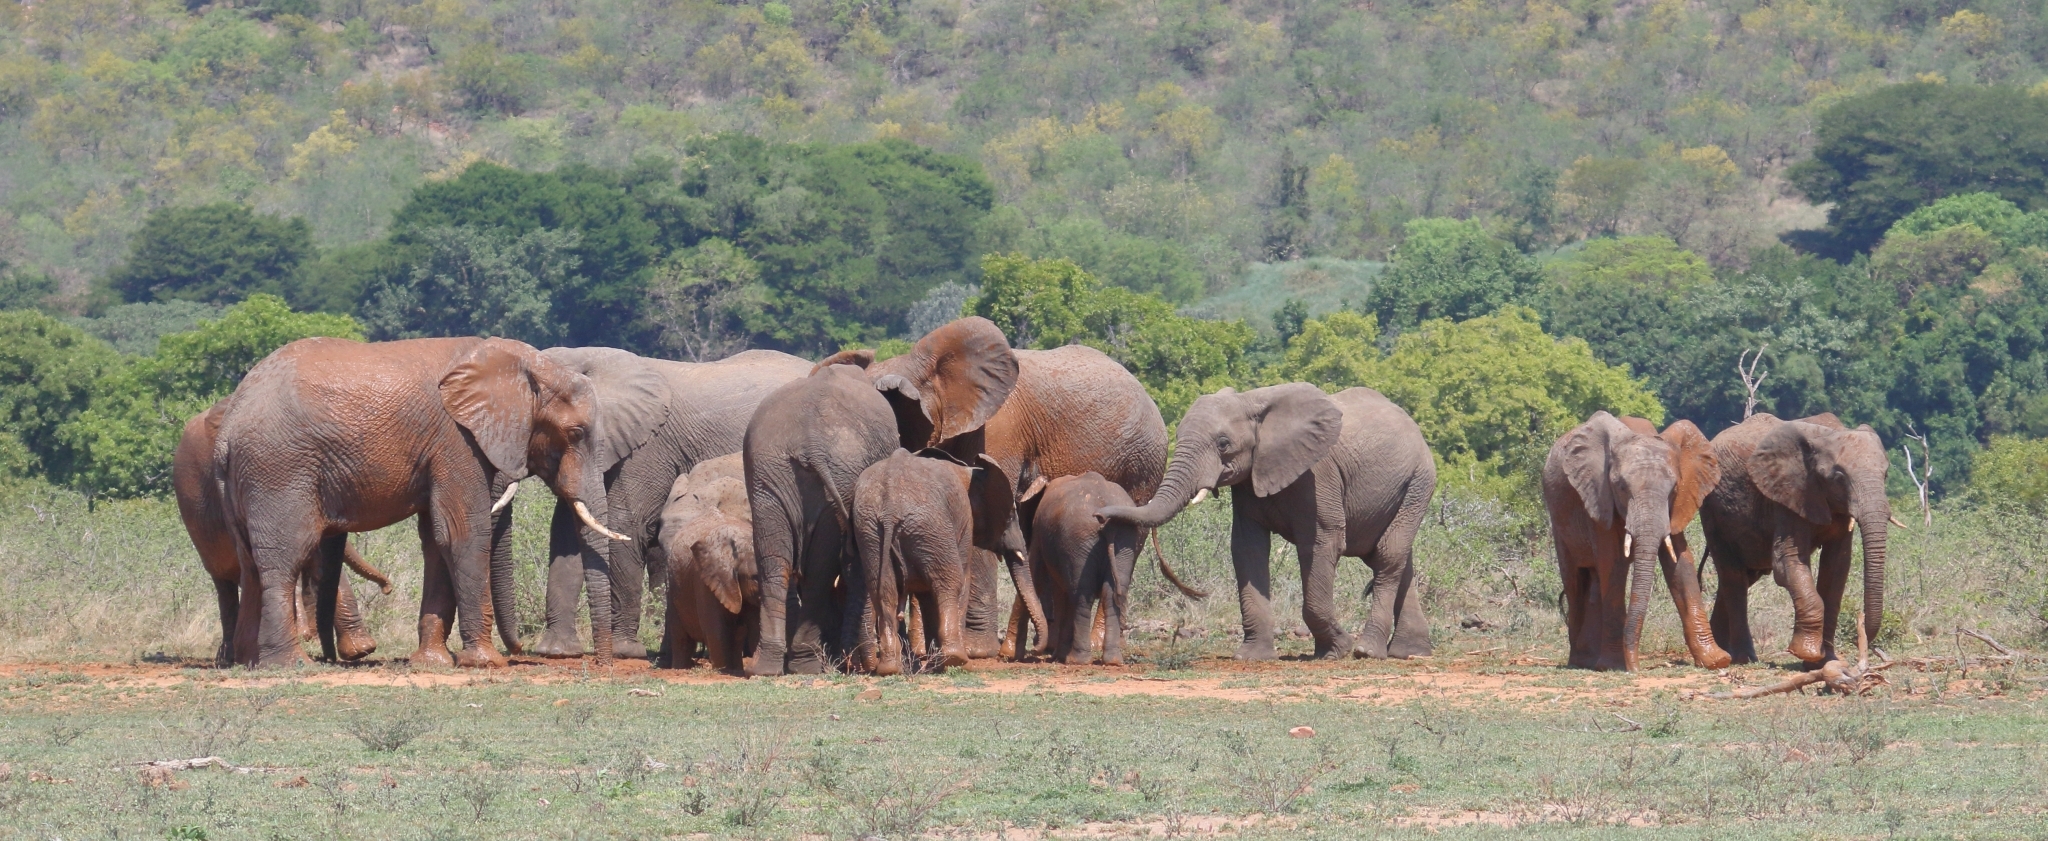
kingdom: Animalia
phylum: Chordata
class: Mammalia
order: Proboscidea
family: Elephantidae
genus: Loxodonta
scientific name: Loxodonta africana
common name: African elephant
